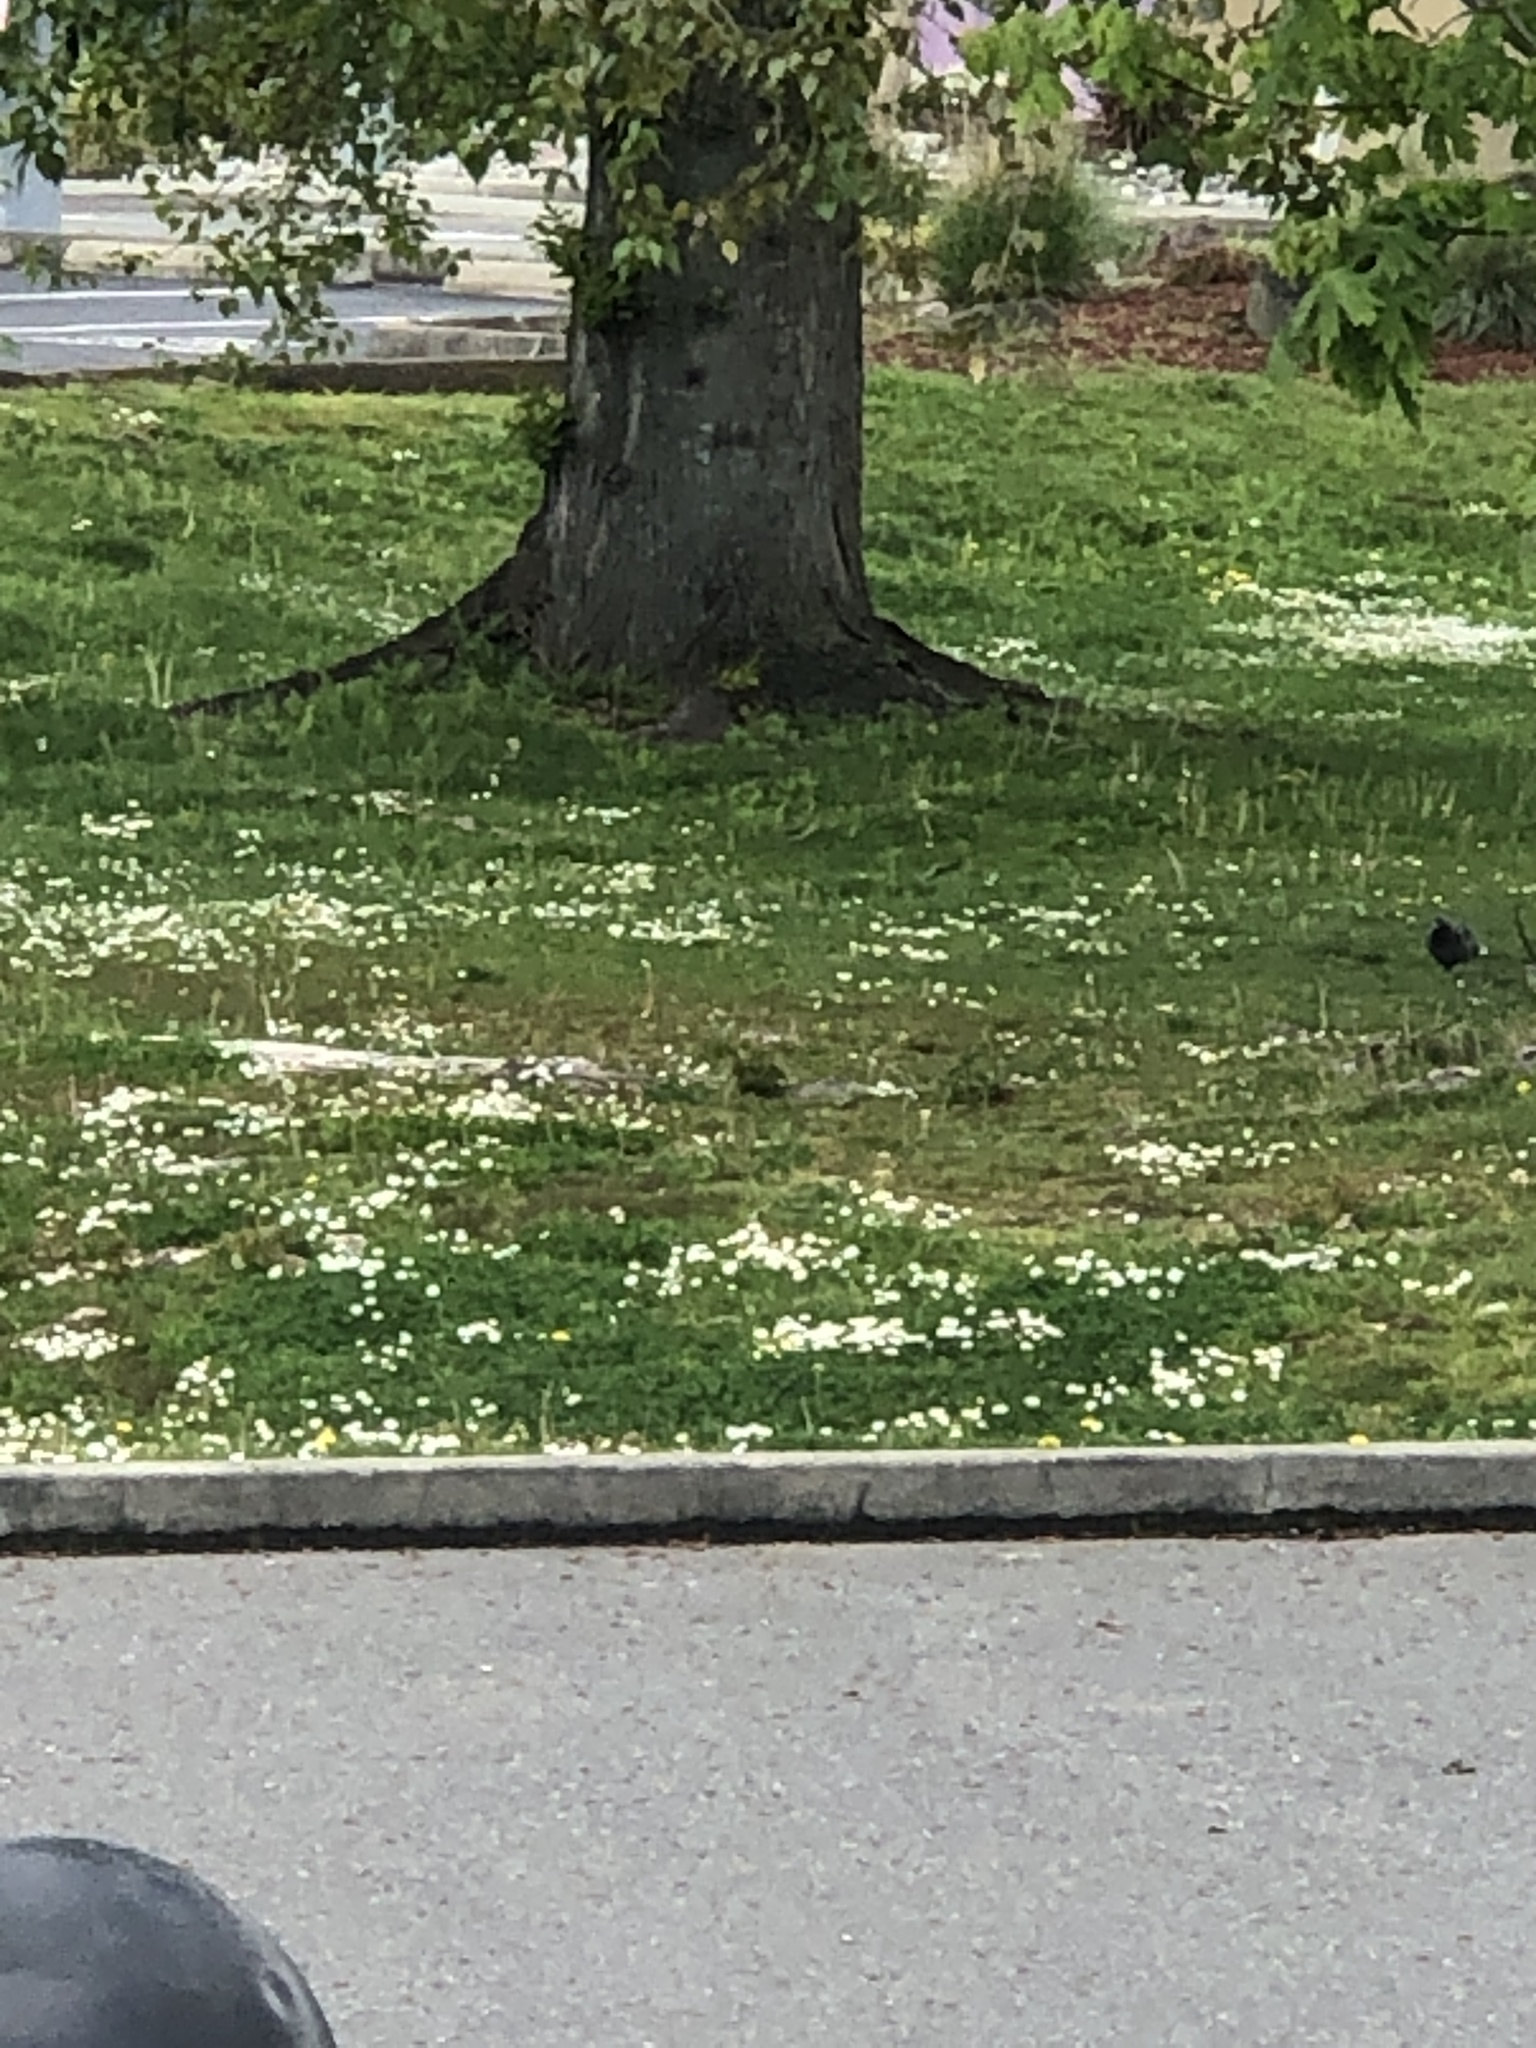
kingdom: Animalia
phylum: Chordata
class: Aves
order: Columbiformes
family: Columbidae
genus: Columba
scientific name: Columba livia
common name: Rock pigeon
